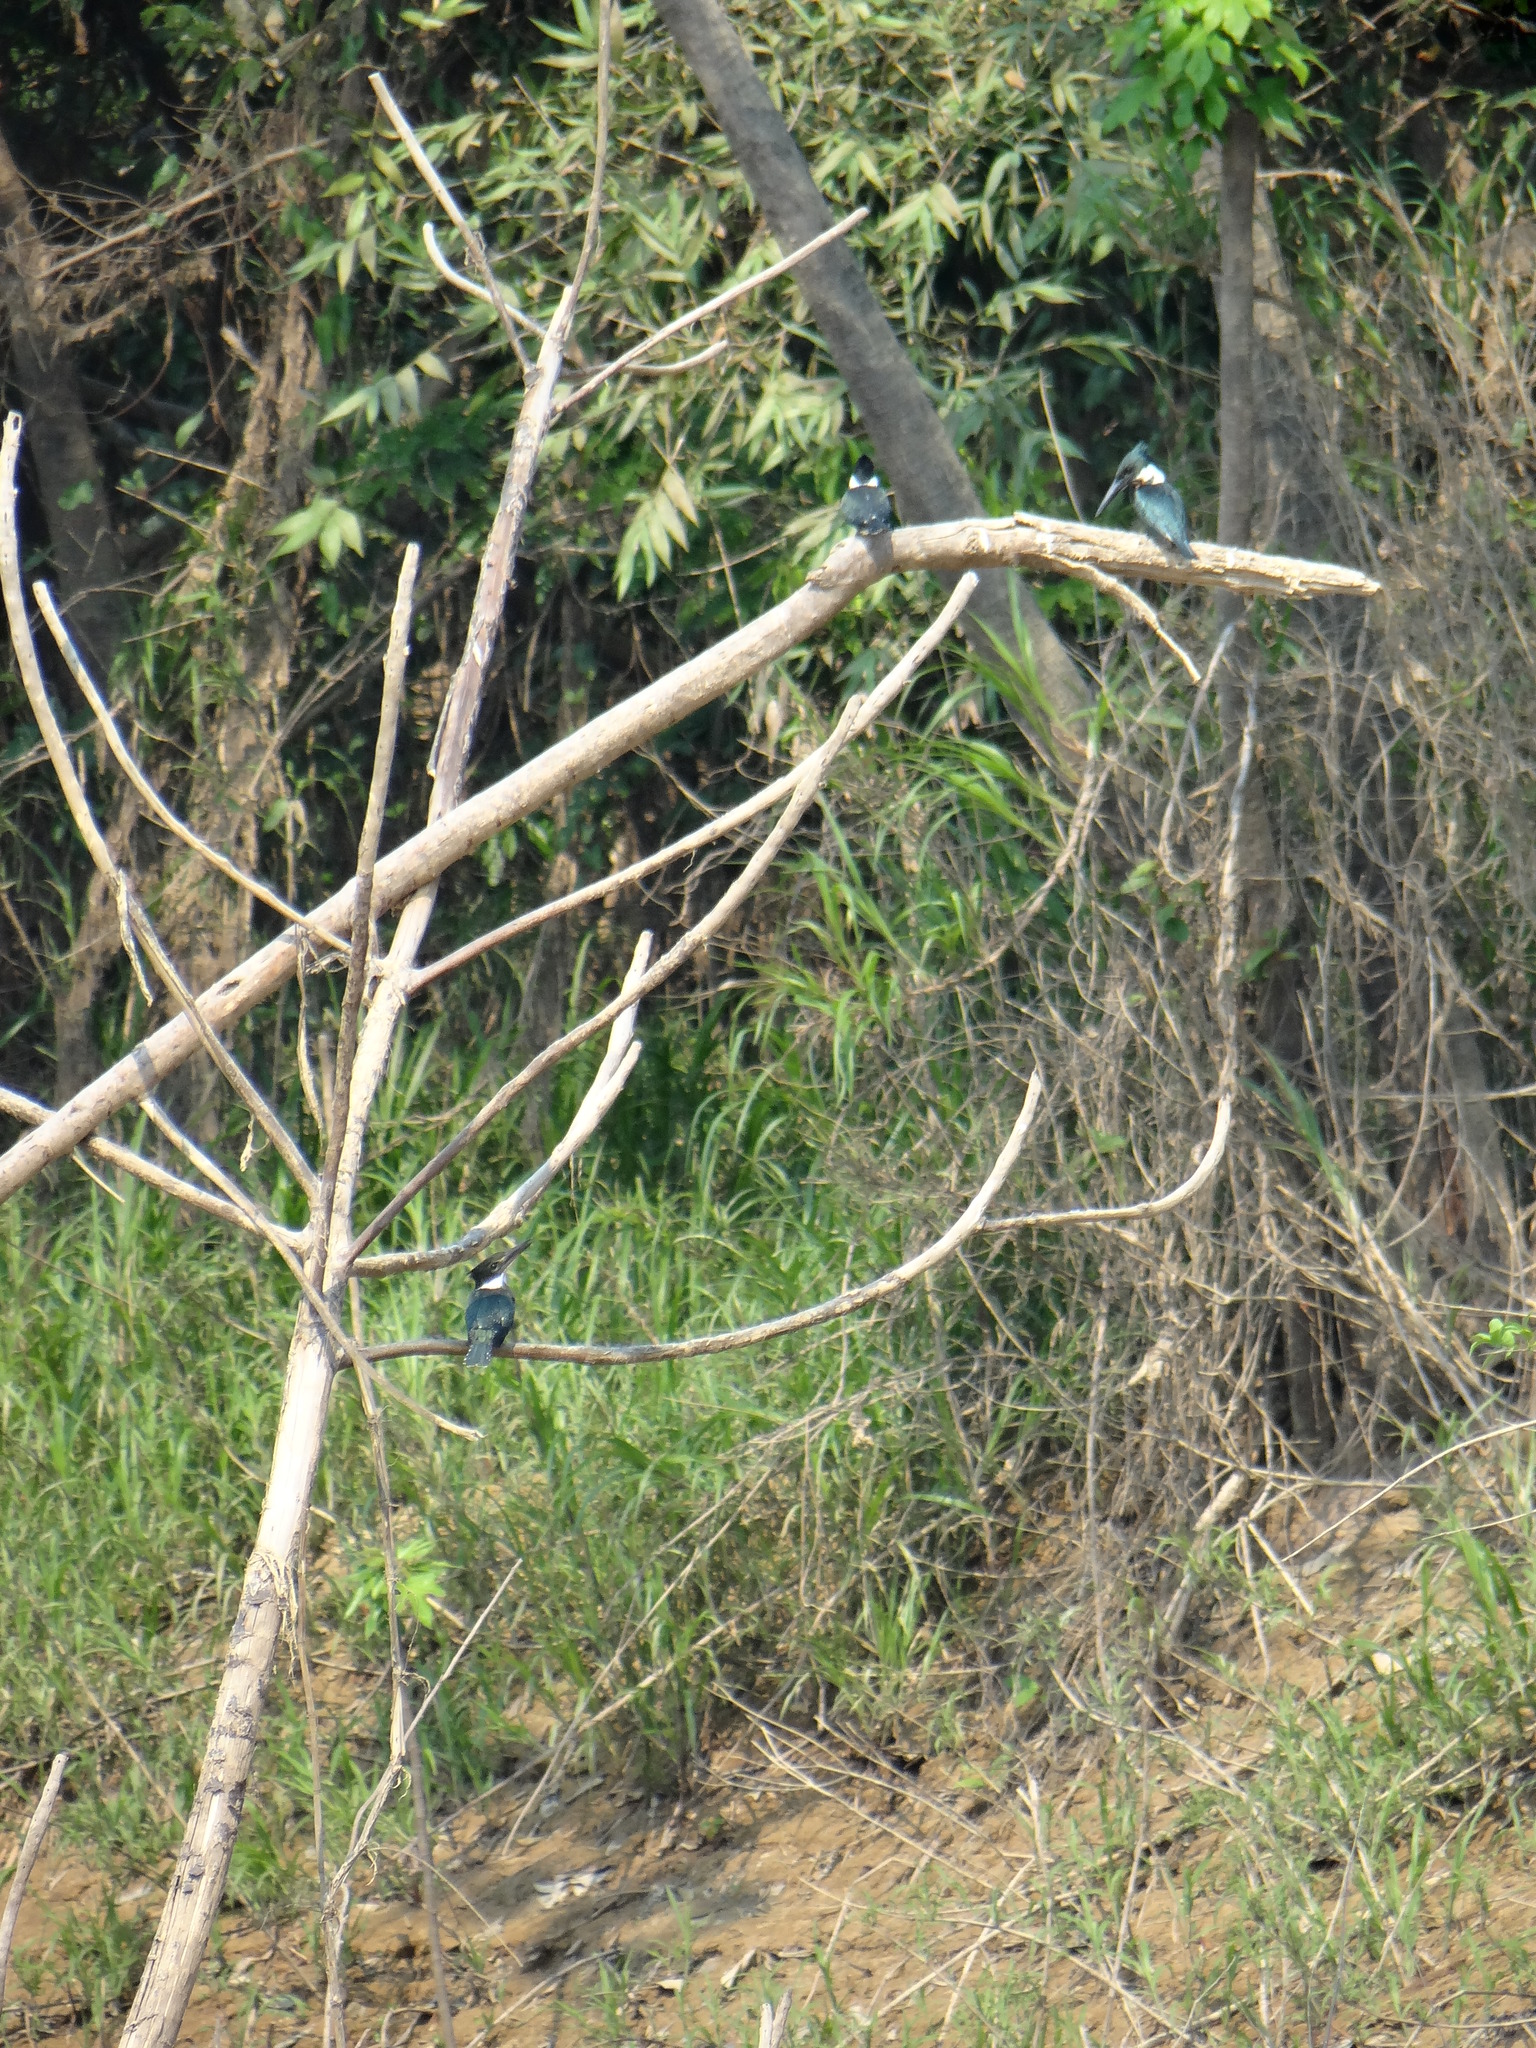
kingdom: Animalia
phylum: Chordata
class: Aves
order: Coraciiformes
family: Alcedinidae
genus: Chloroceryle
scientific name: Chloroceryle amazona
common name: Amazon kingfisher
